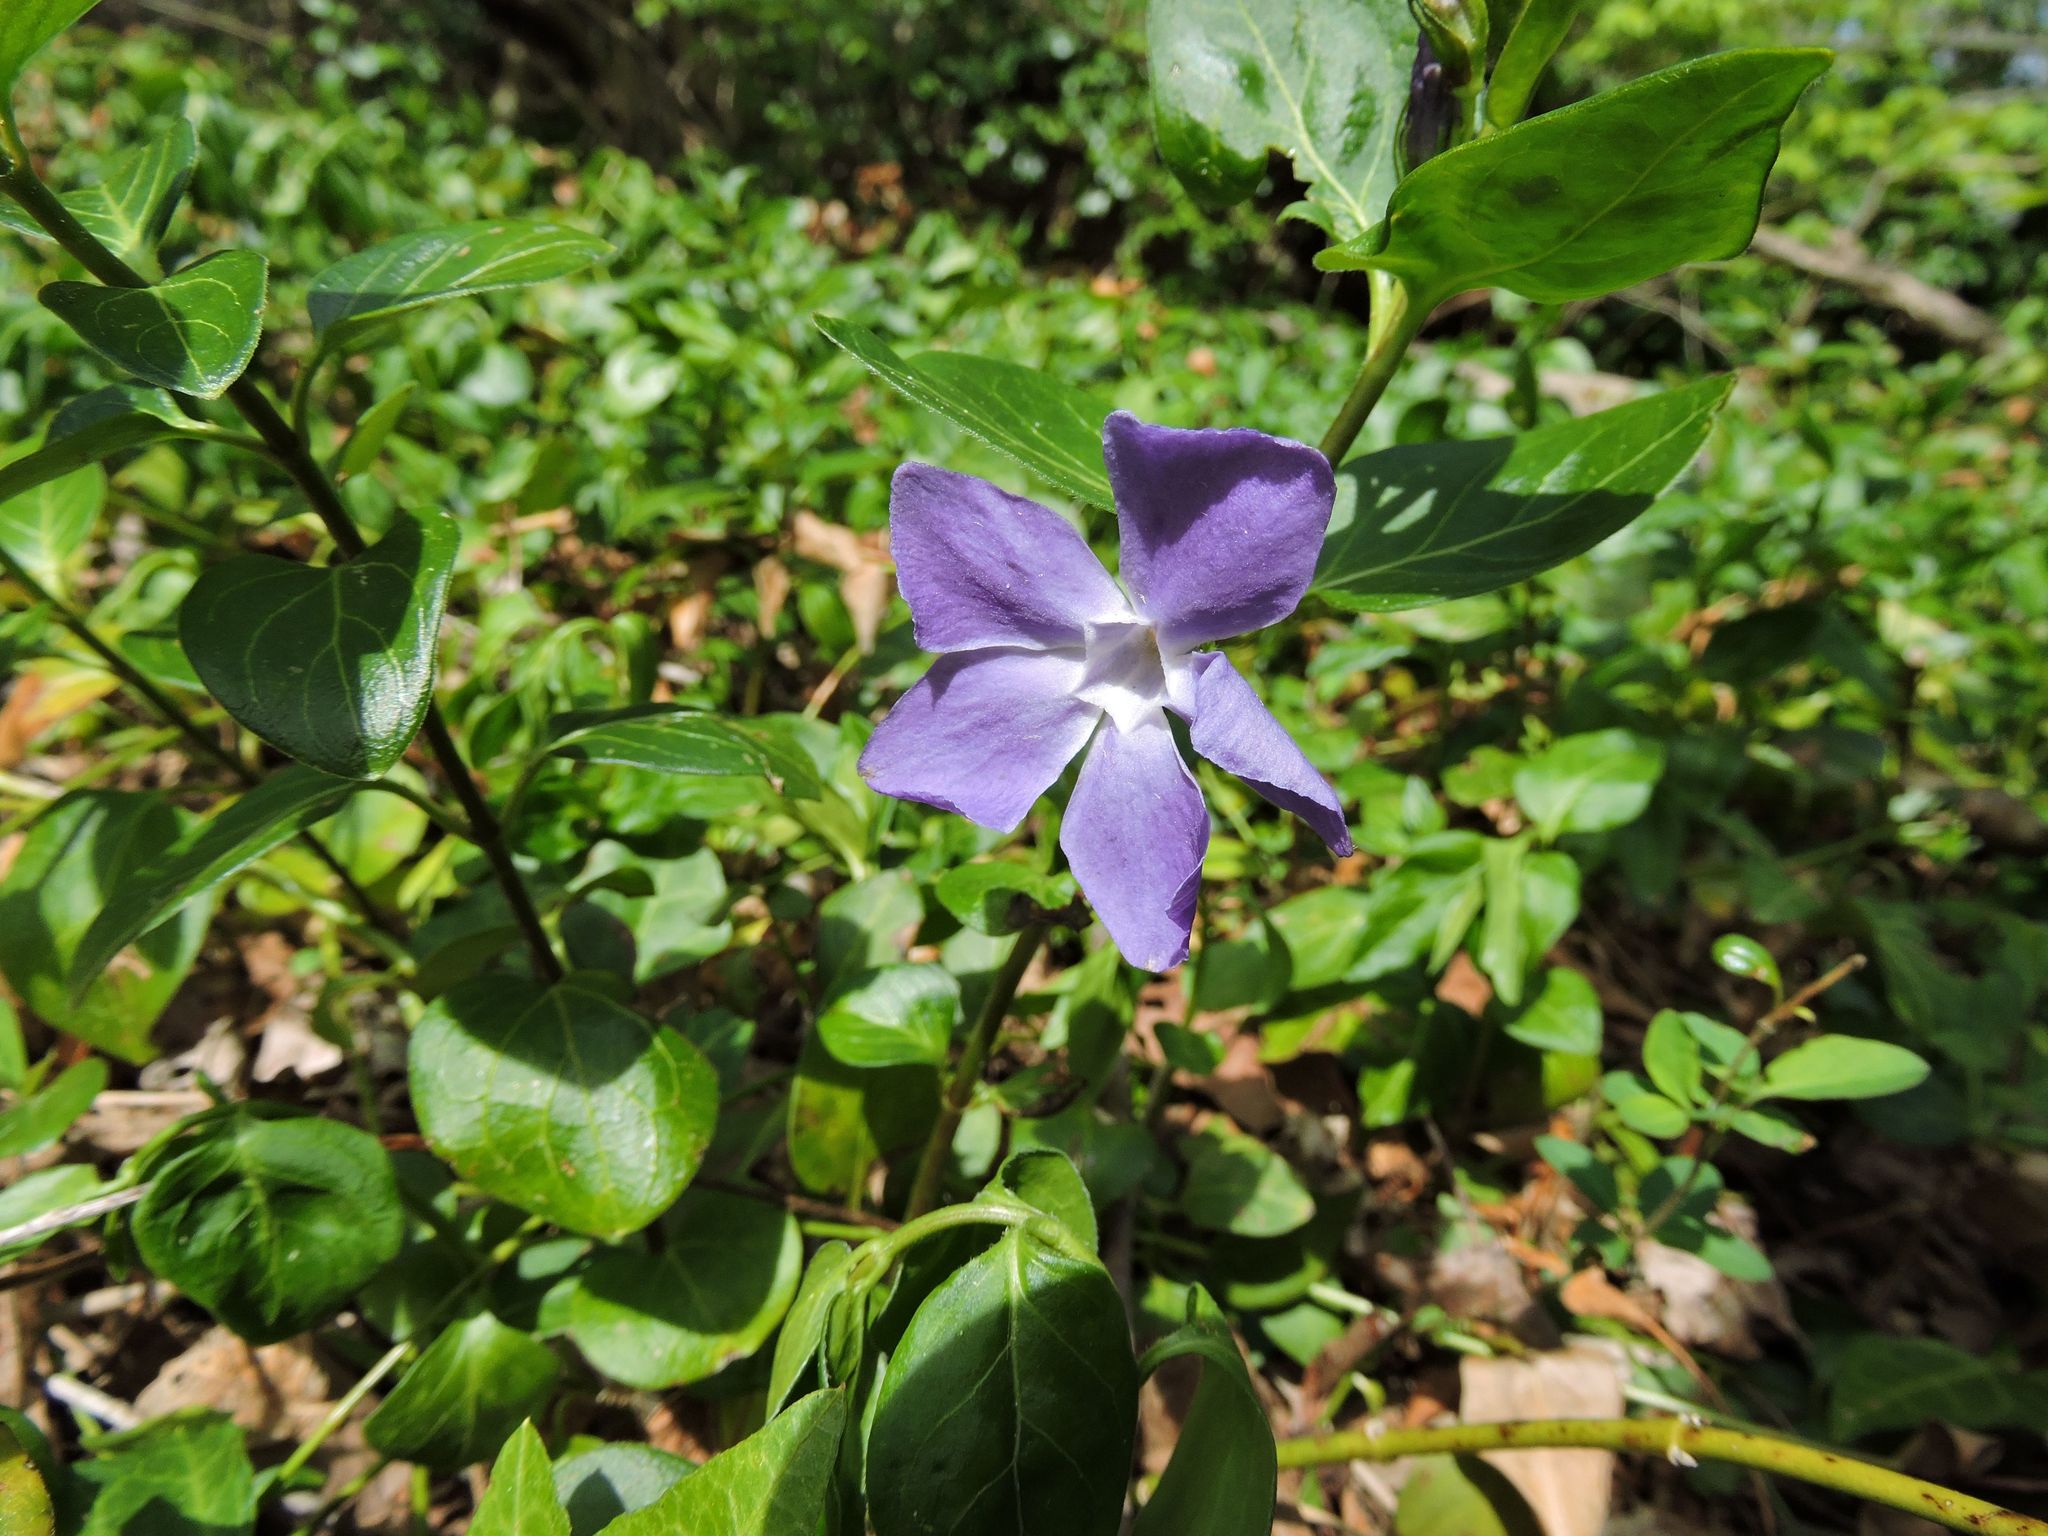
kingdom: Plantae
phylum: Tracheophyta
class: Magnoliopsida
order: Gentianales
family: Apocynaceae
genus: Vinca
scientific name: Vinca major
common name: Greater periwinkle
